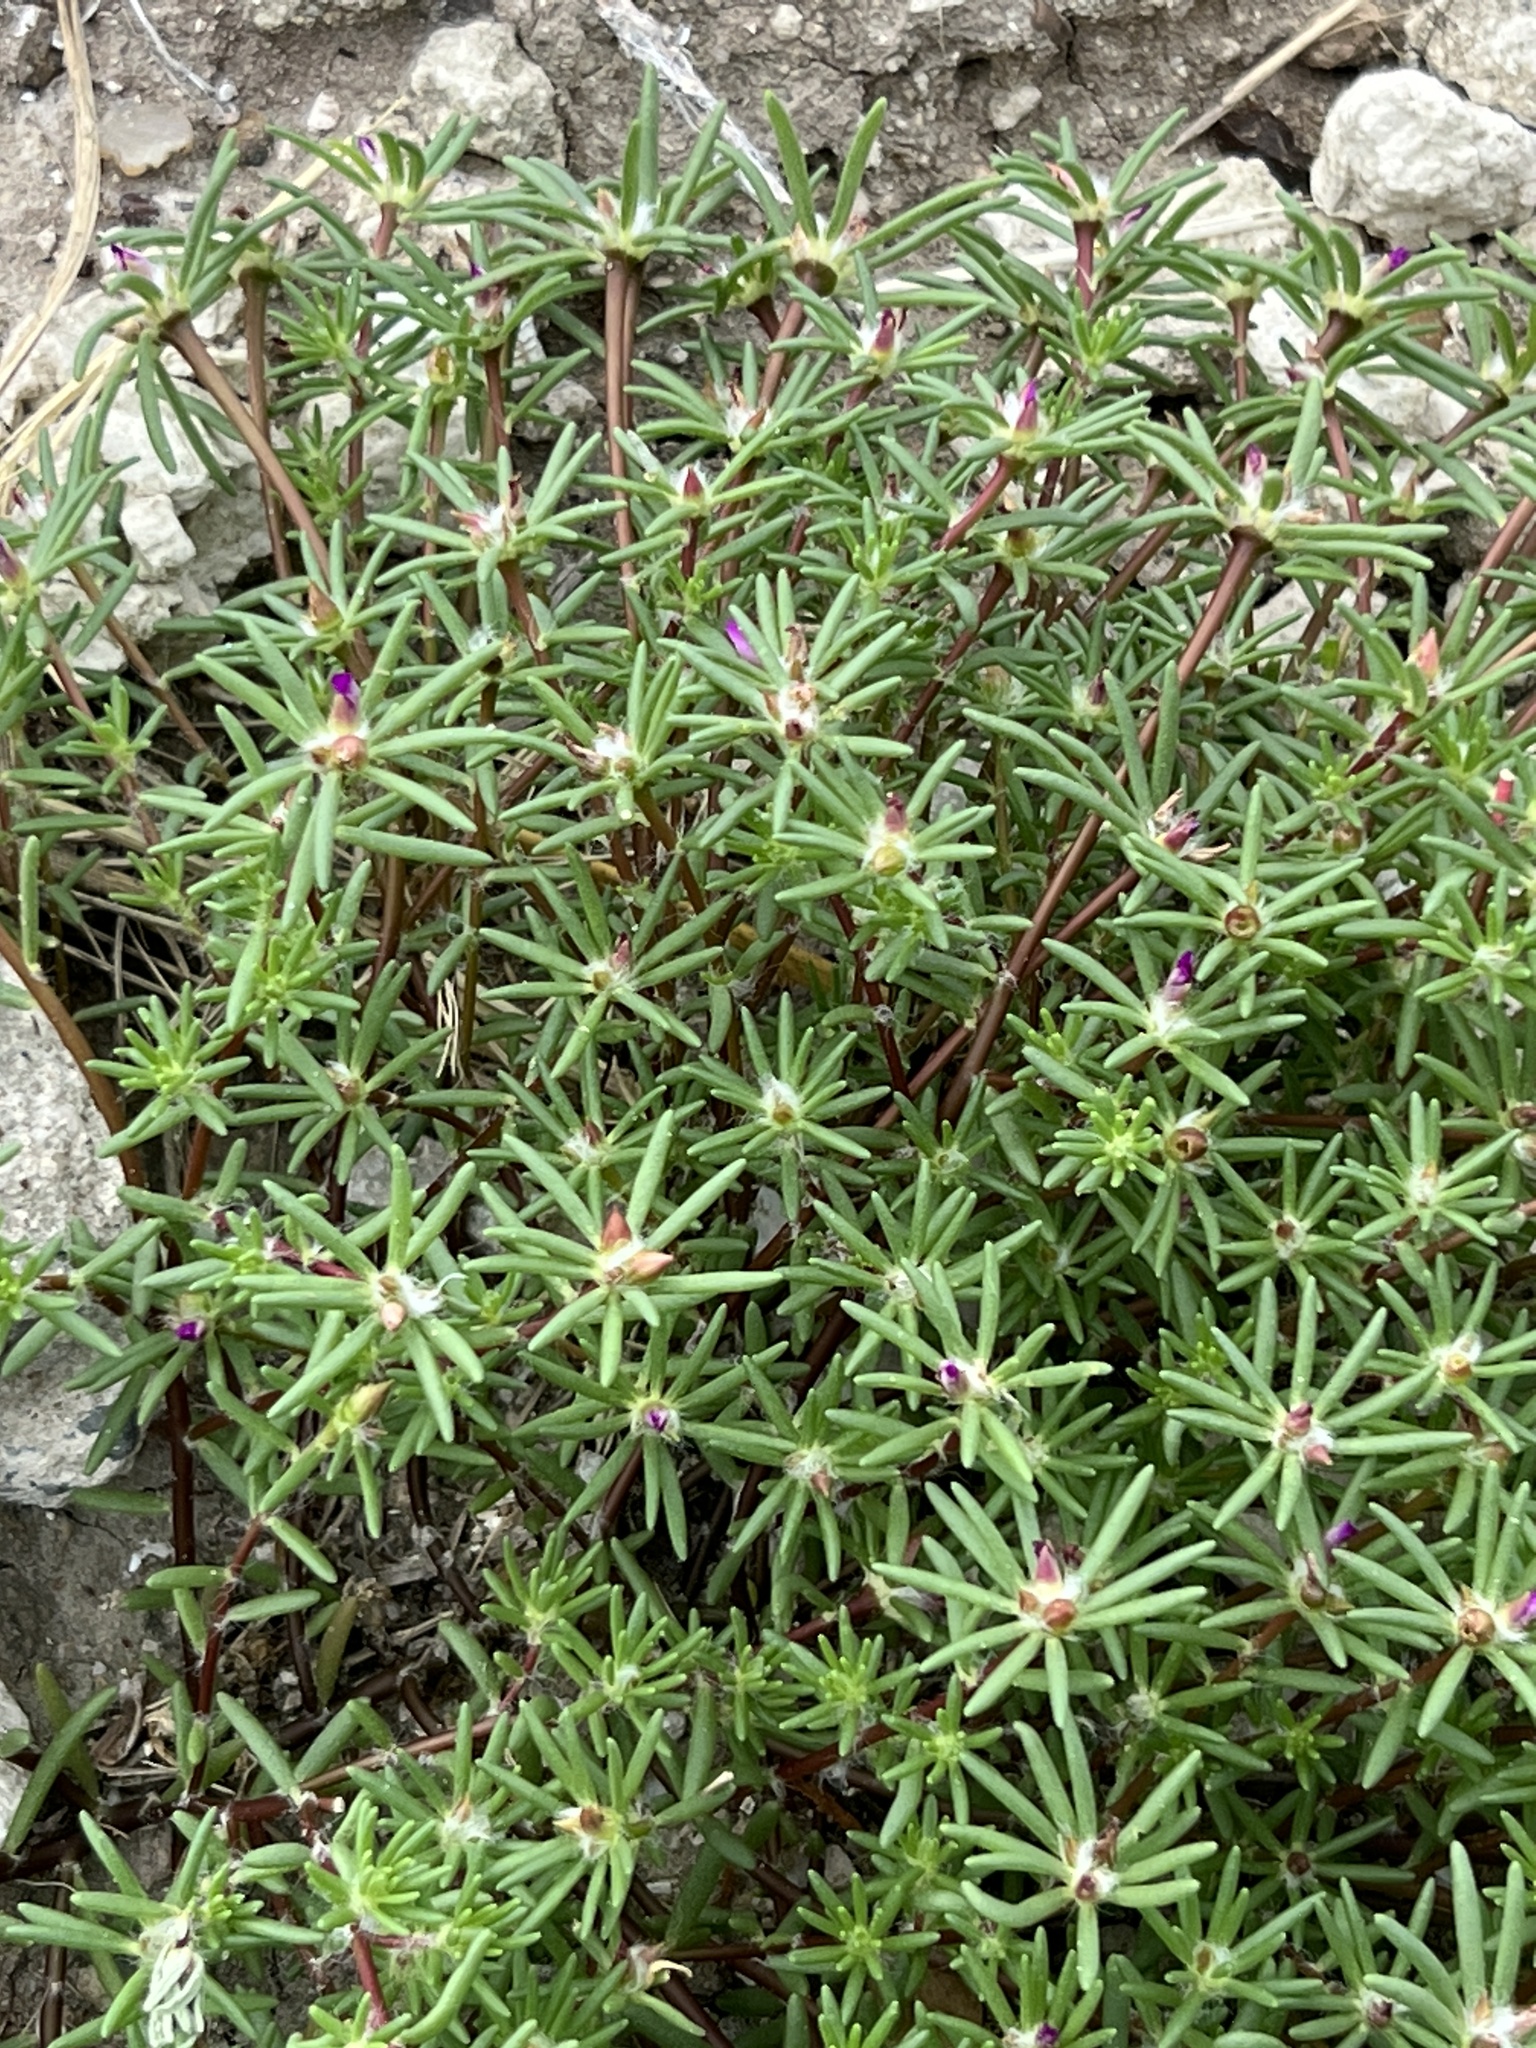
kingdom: Plantae
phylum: Tracheophyta
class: Magnoliopsida
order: Caryophyllales
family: Portulacaceae
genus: Portulaca
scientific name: Portulaca pilosa
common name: Kiss me quick
